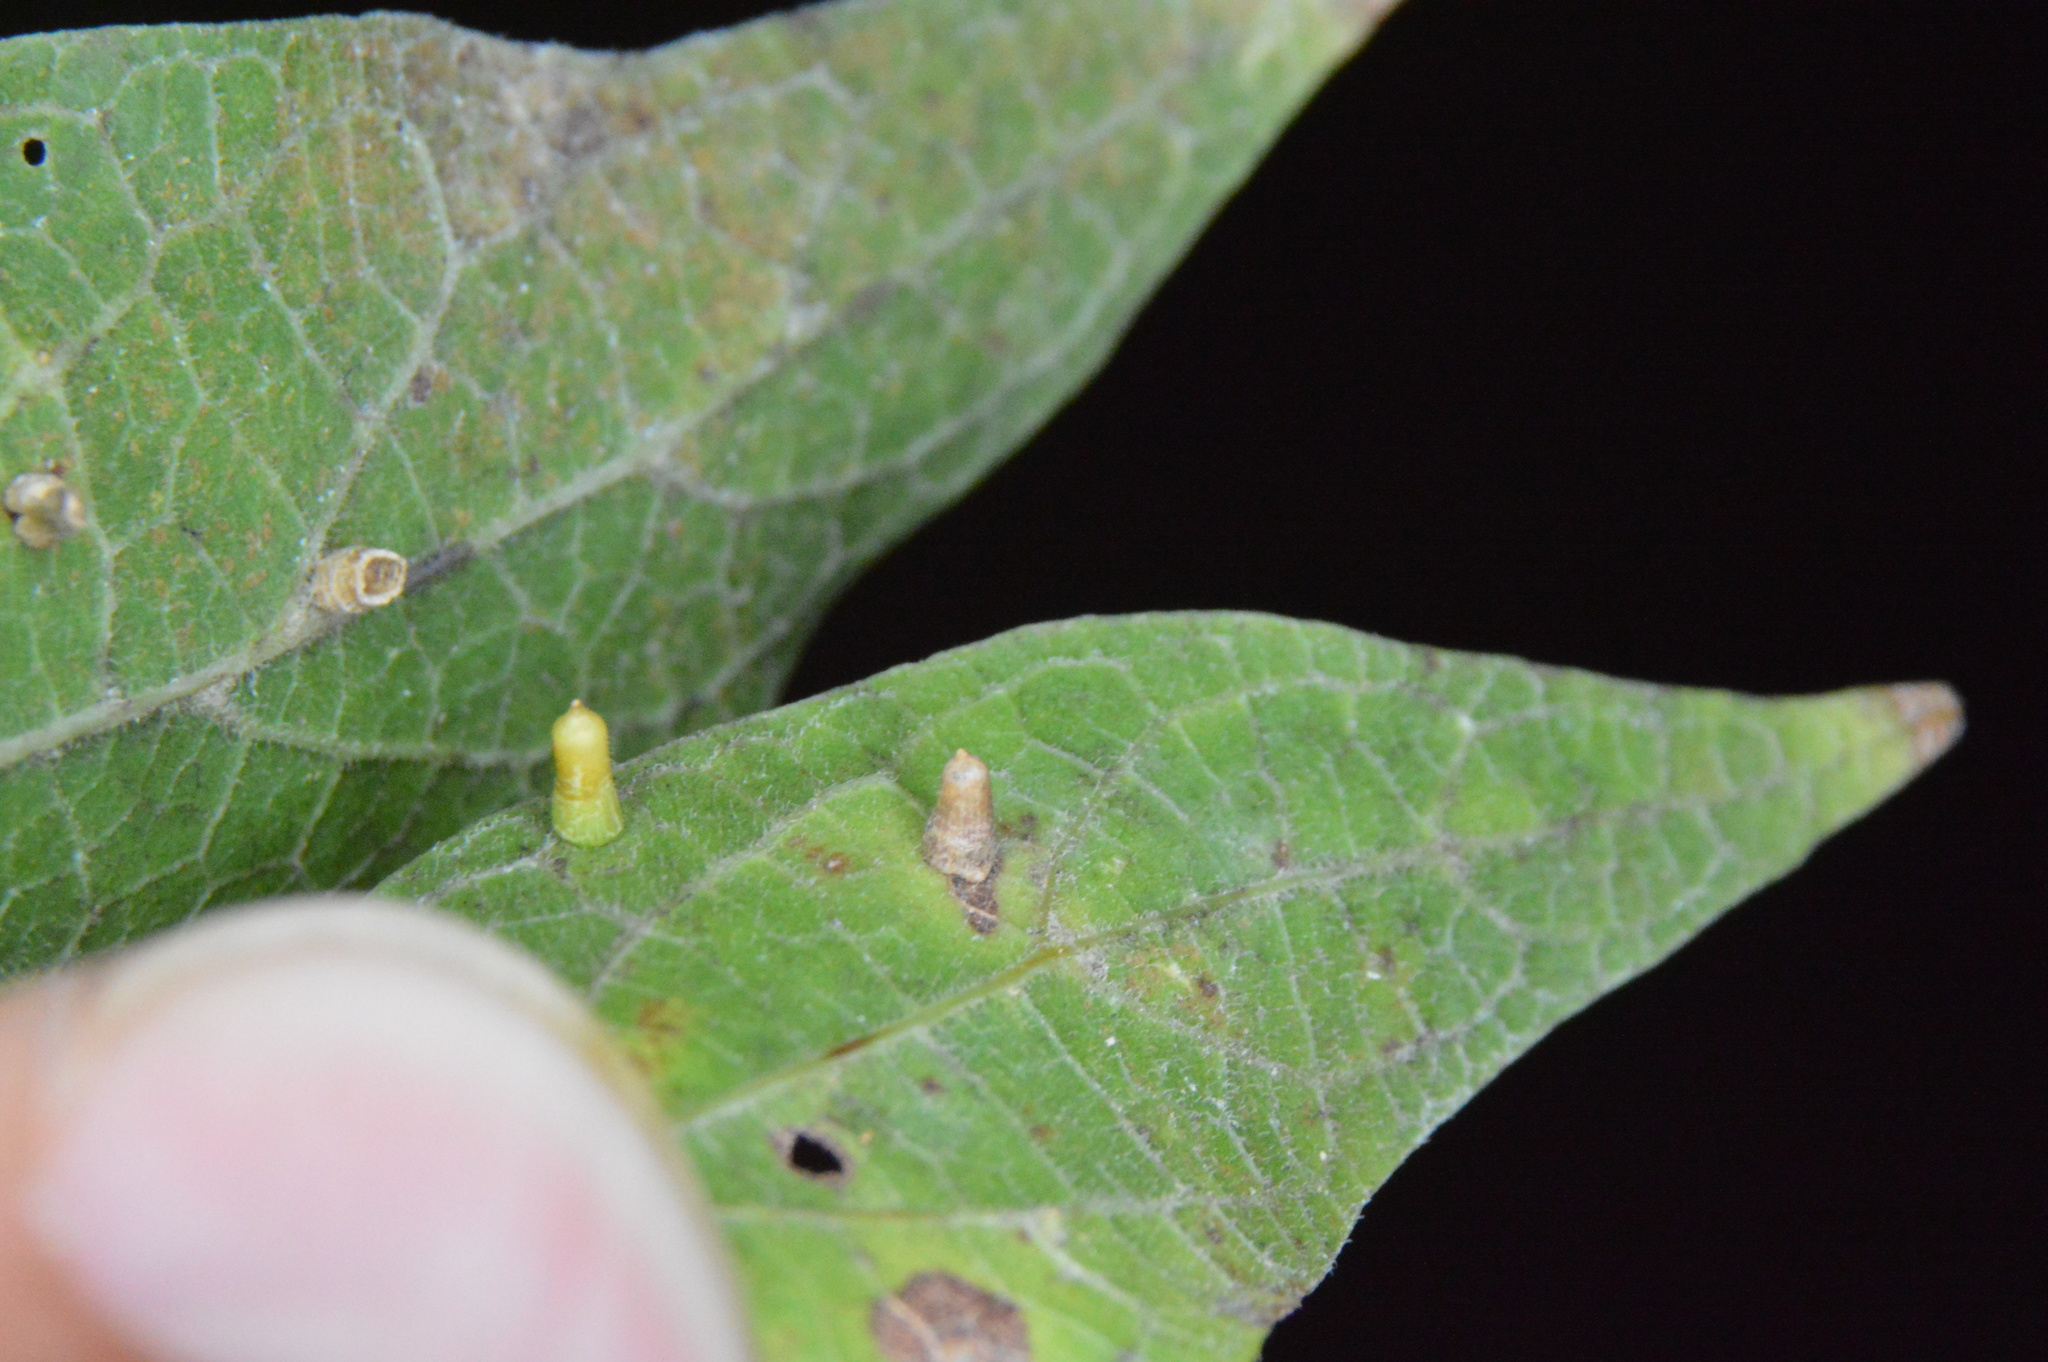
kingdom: Animalia
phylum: Arthropoda
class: Insecta
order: Diptera
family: Cecidomyiidae
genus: Celticecis
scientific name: Celticecis aciculata
